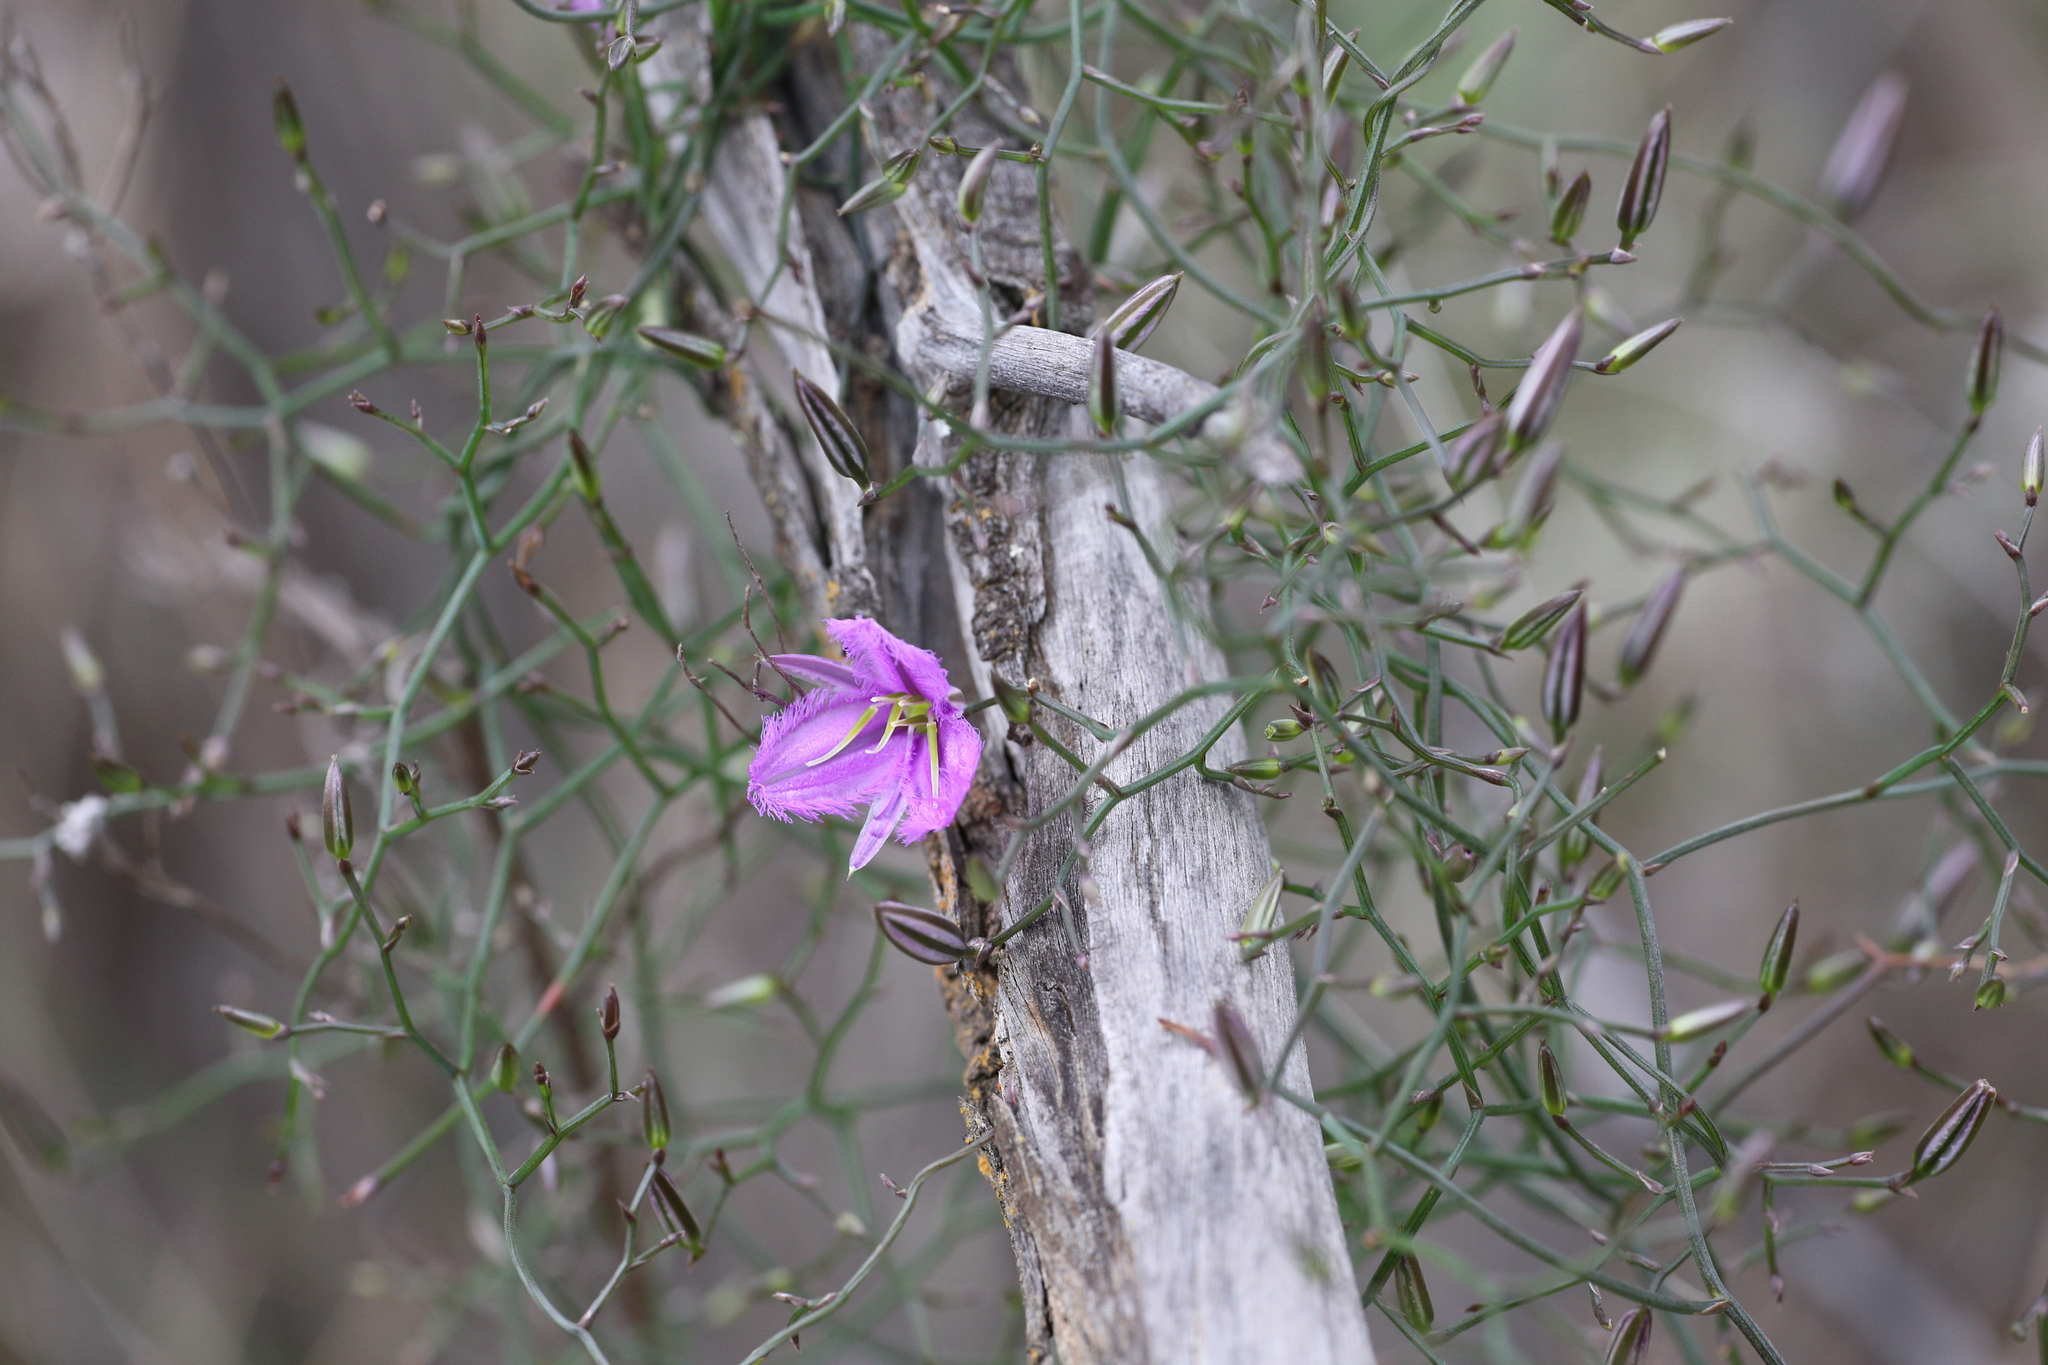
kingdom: Plantae
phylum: Tracheophyta
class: Liliopsida
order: Asparagales
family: Asparagaceae
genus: Thysanotus
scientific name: Thysanotus manglesianus
